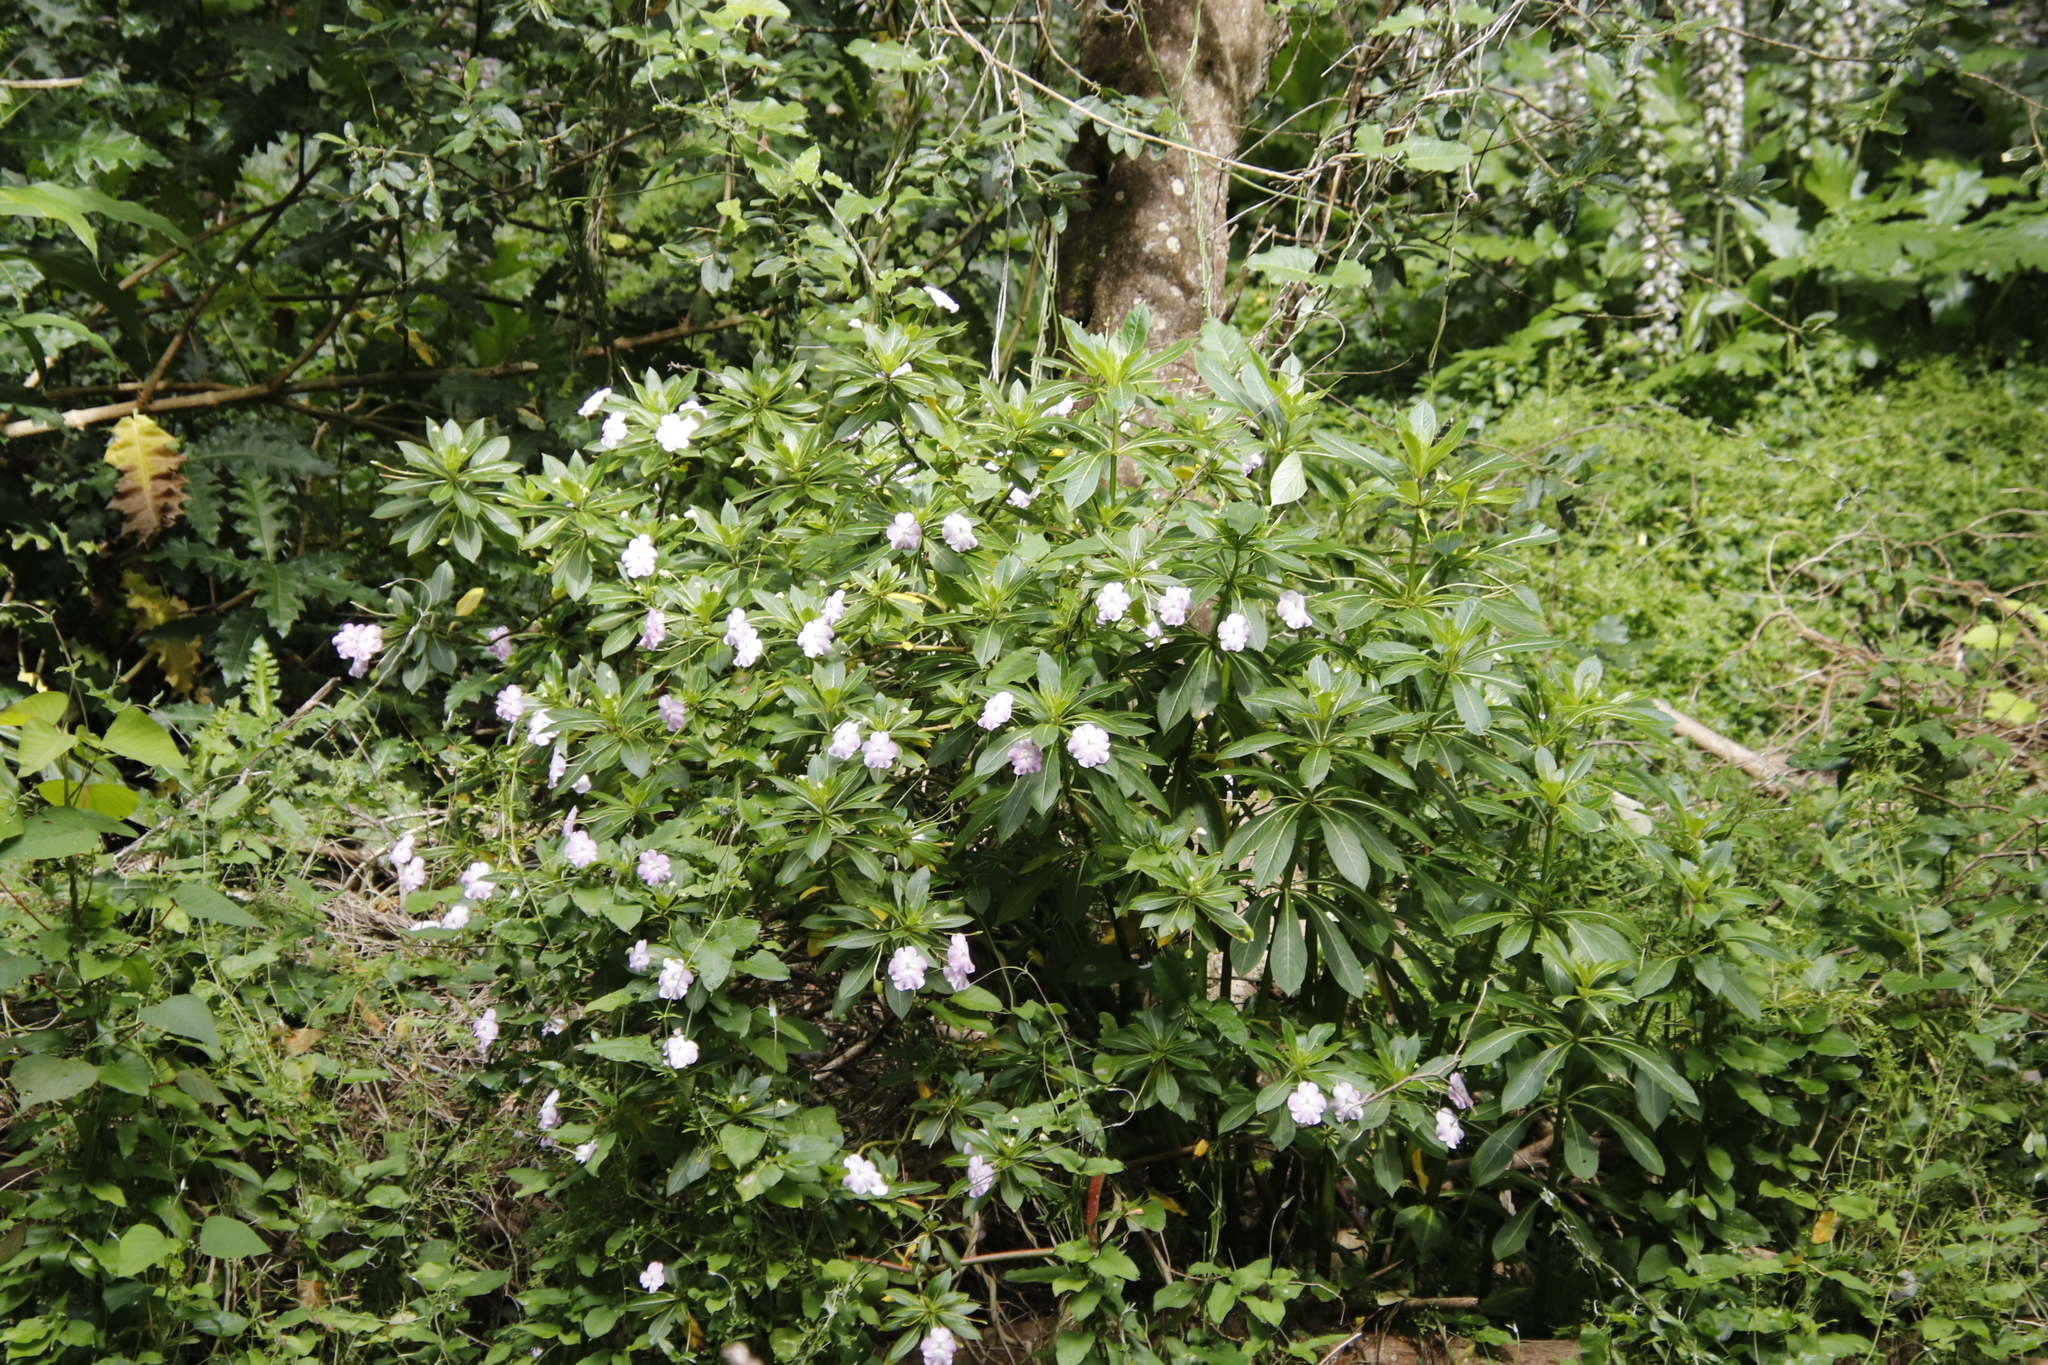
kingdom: Plantae
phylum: Tracheophyta
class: Magnoliopsida
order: Ericales
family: Balsaminaceae
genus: Impatiens
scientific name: Impatiens sodenii
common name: Oliver's touch-me-not
